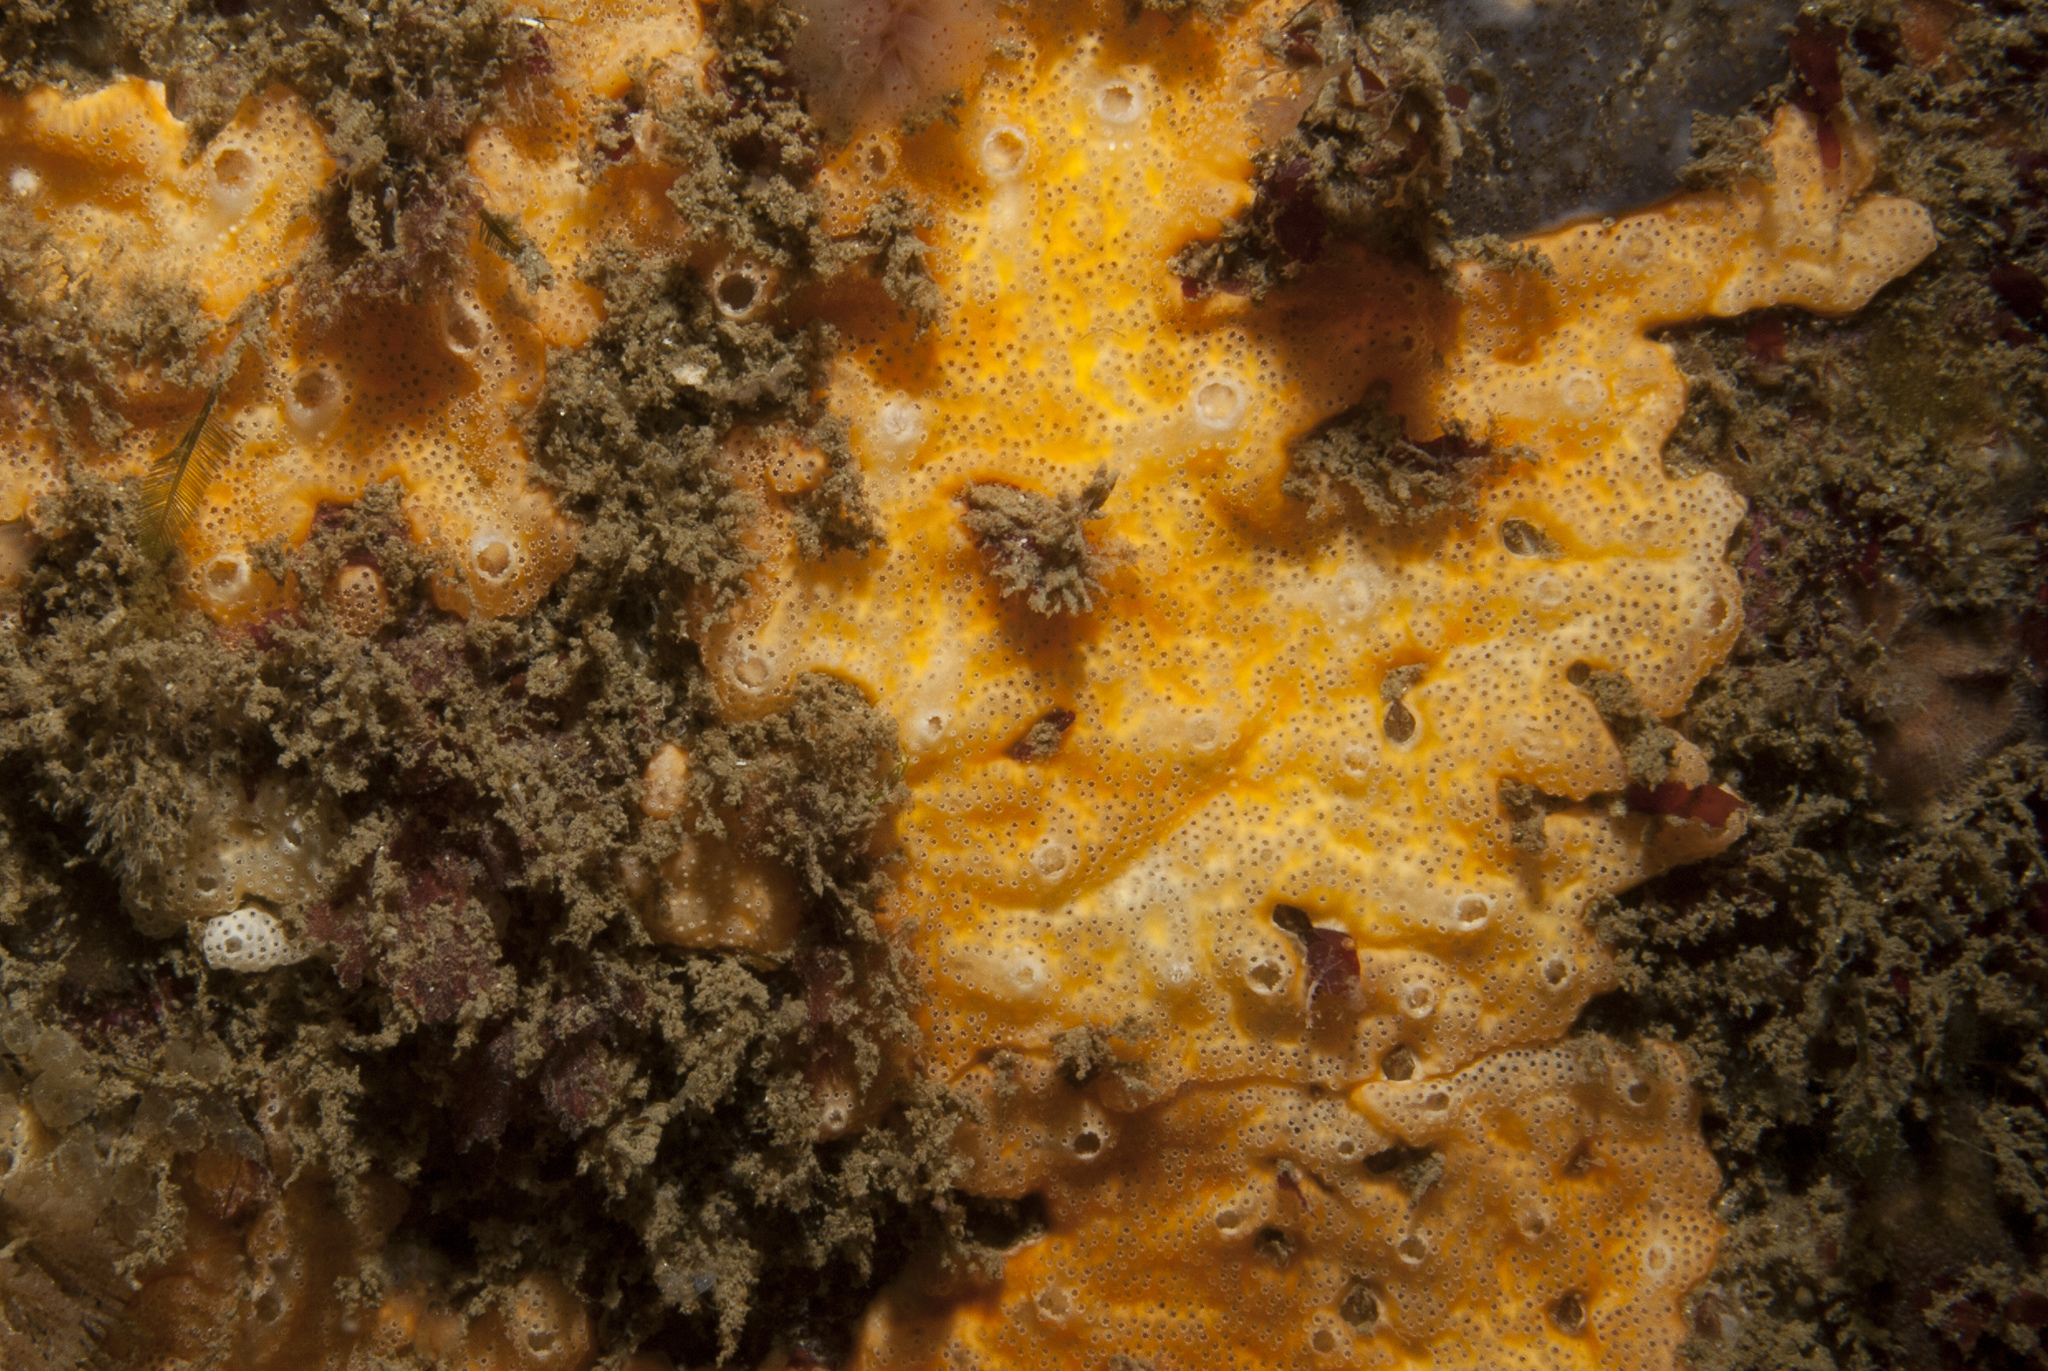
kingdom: Animalia
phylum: Chordata
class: Ascidiacea
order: Aplousobranchia
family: Didemnidae
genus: Polysyncraton
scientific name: Polysyncraton bilobatum
